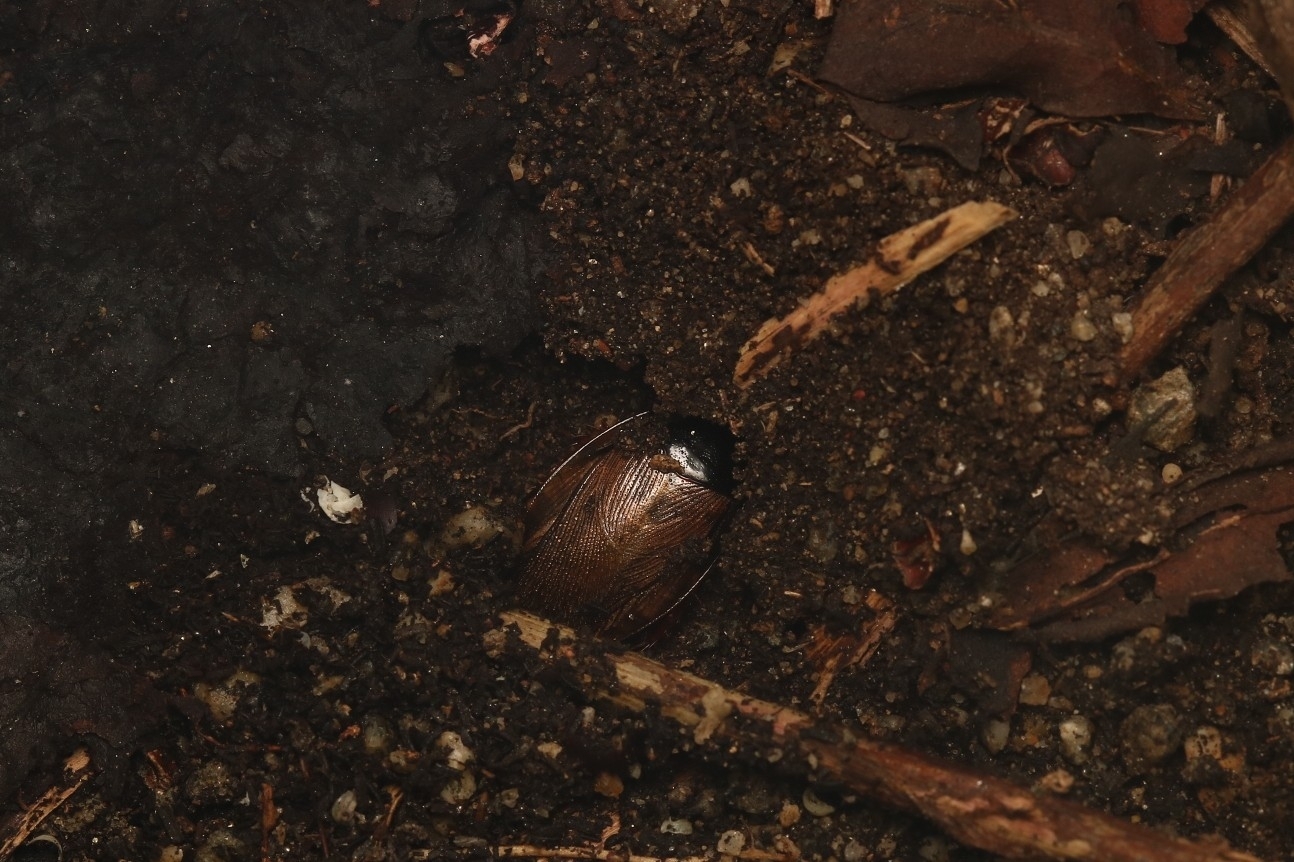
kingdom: Animalia
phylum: Arthropoda
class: Insecta
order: Blattodea
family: Blaberidae
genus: Pycnoscelus
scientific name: Pycnoscelus surinamensis
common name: Surinam cockroach
